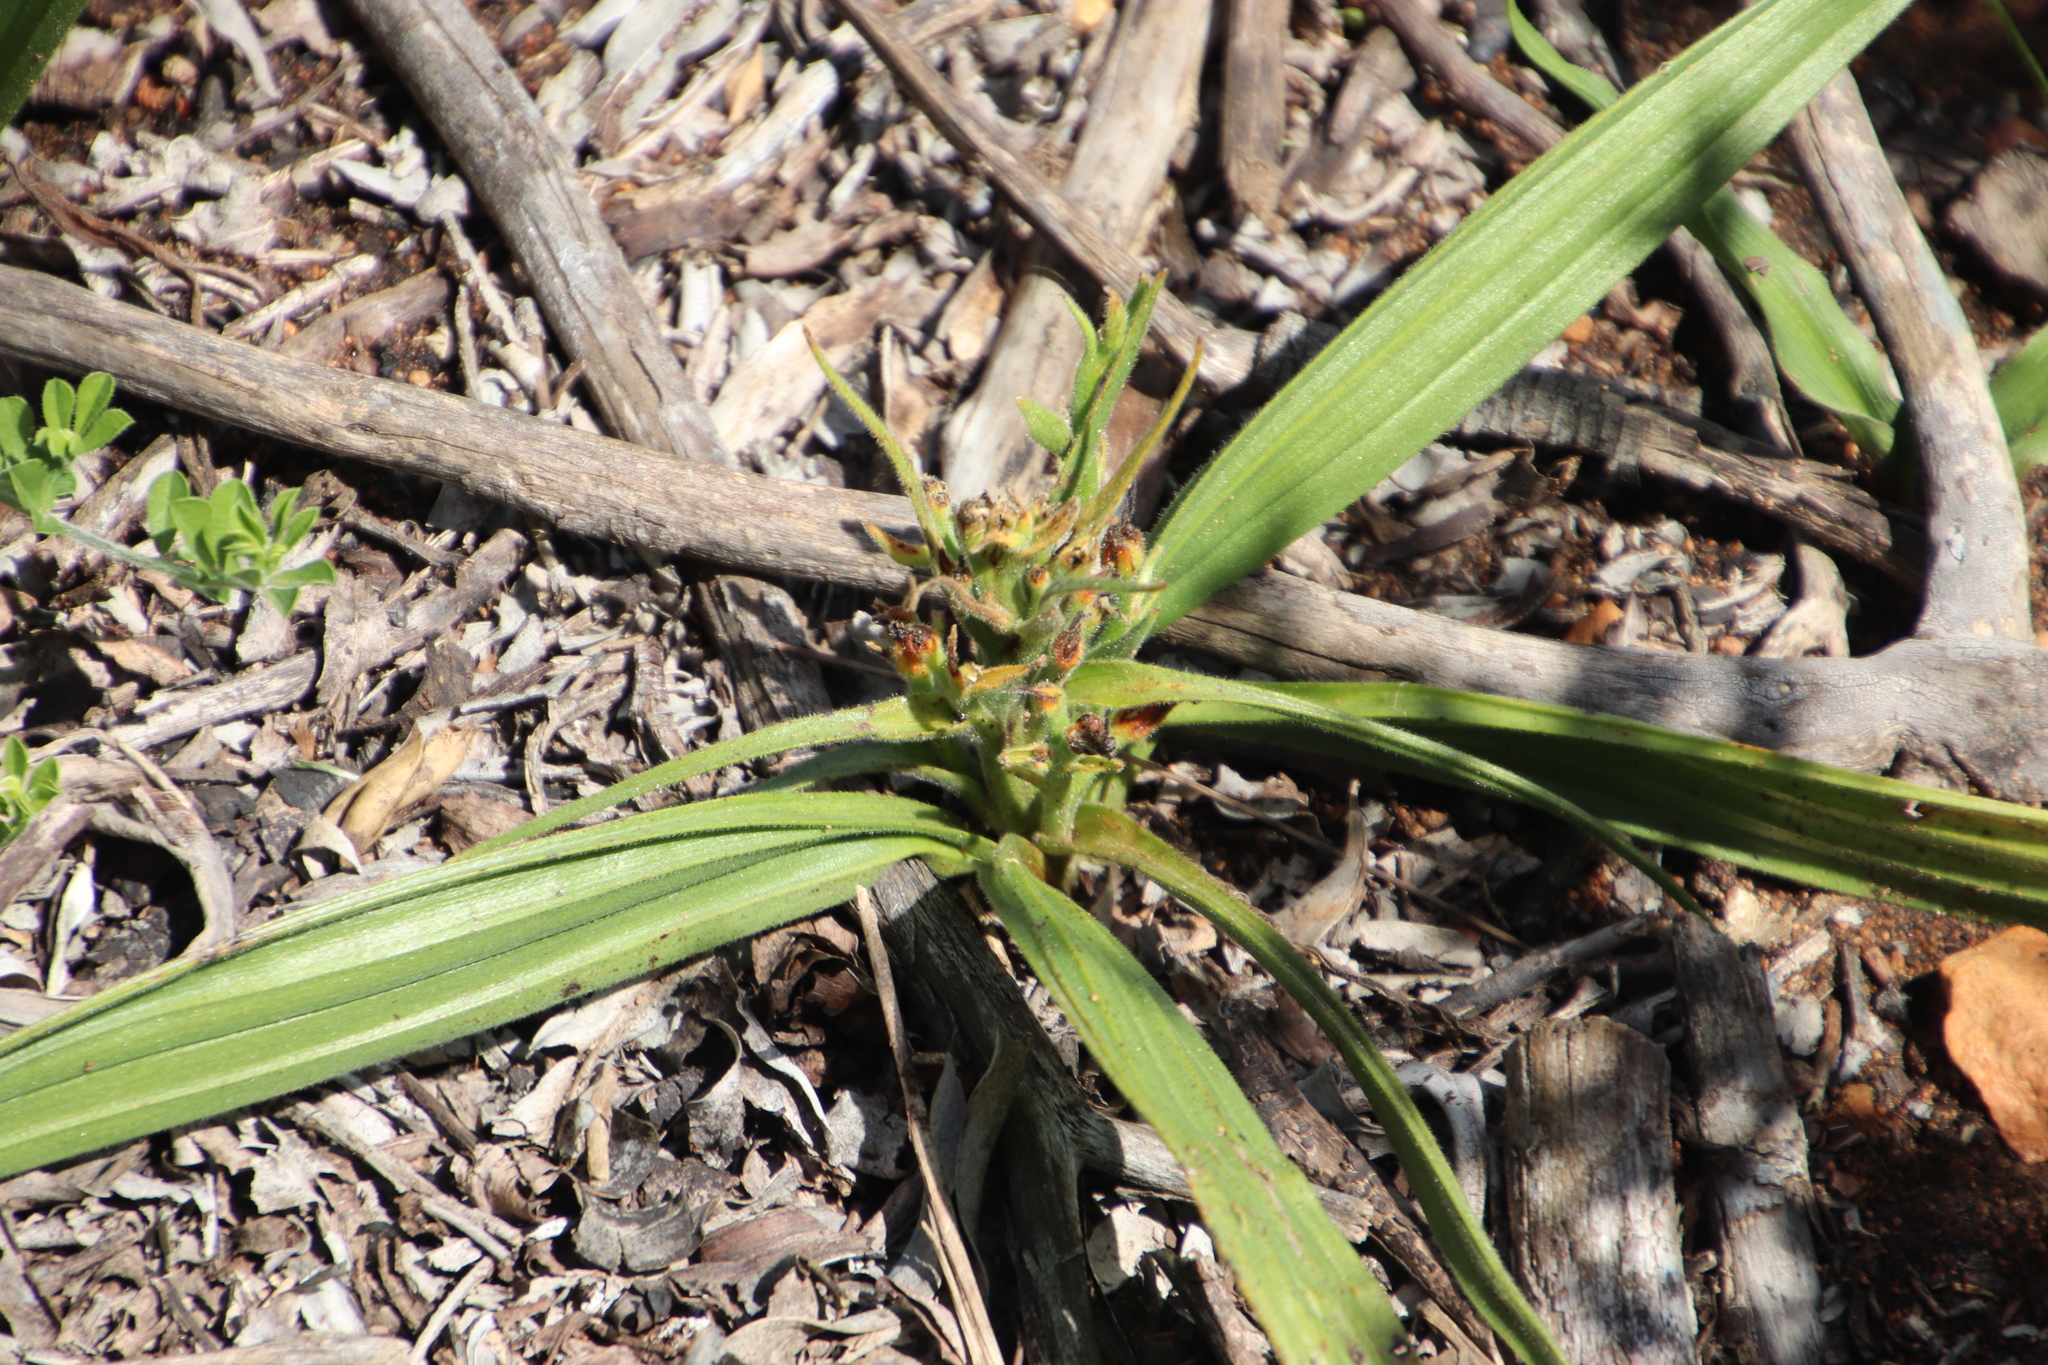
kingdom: Plantae
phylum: Tracheophyta
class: Liliopsida
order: Commelinales
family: Haemodoraceae
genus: Wachendorfia
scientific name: Wachendorfia multiflora
